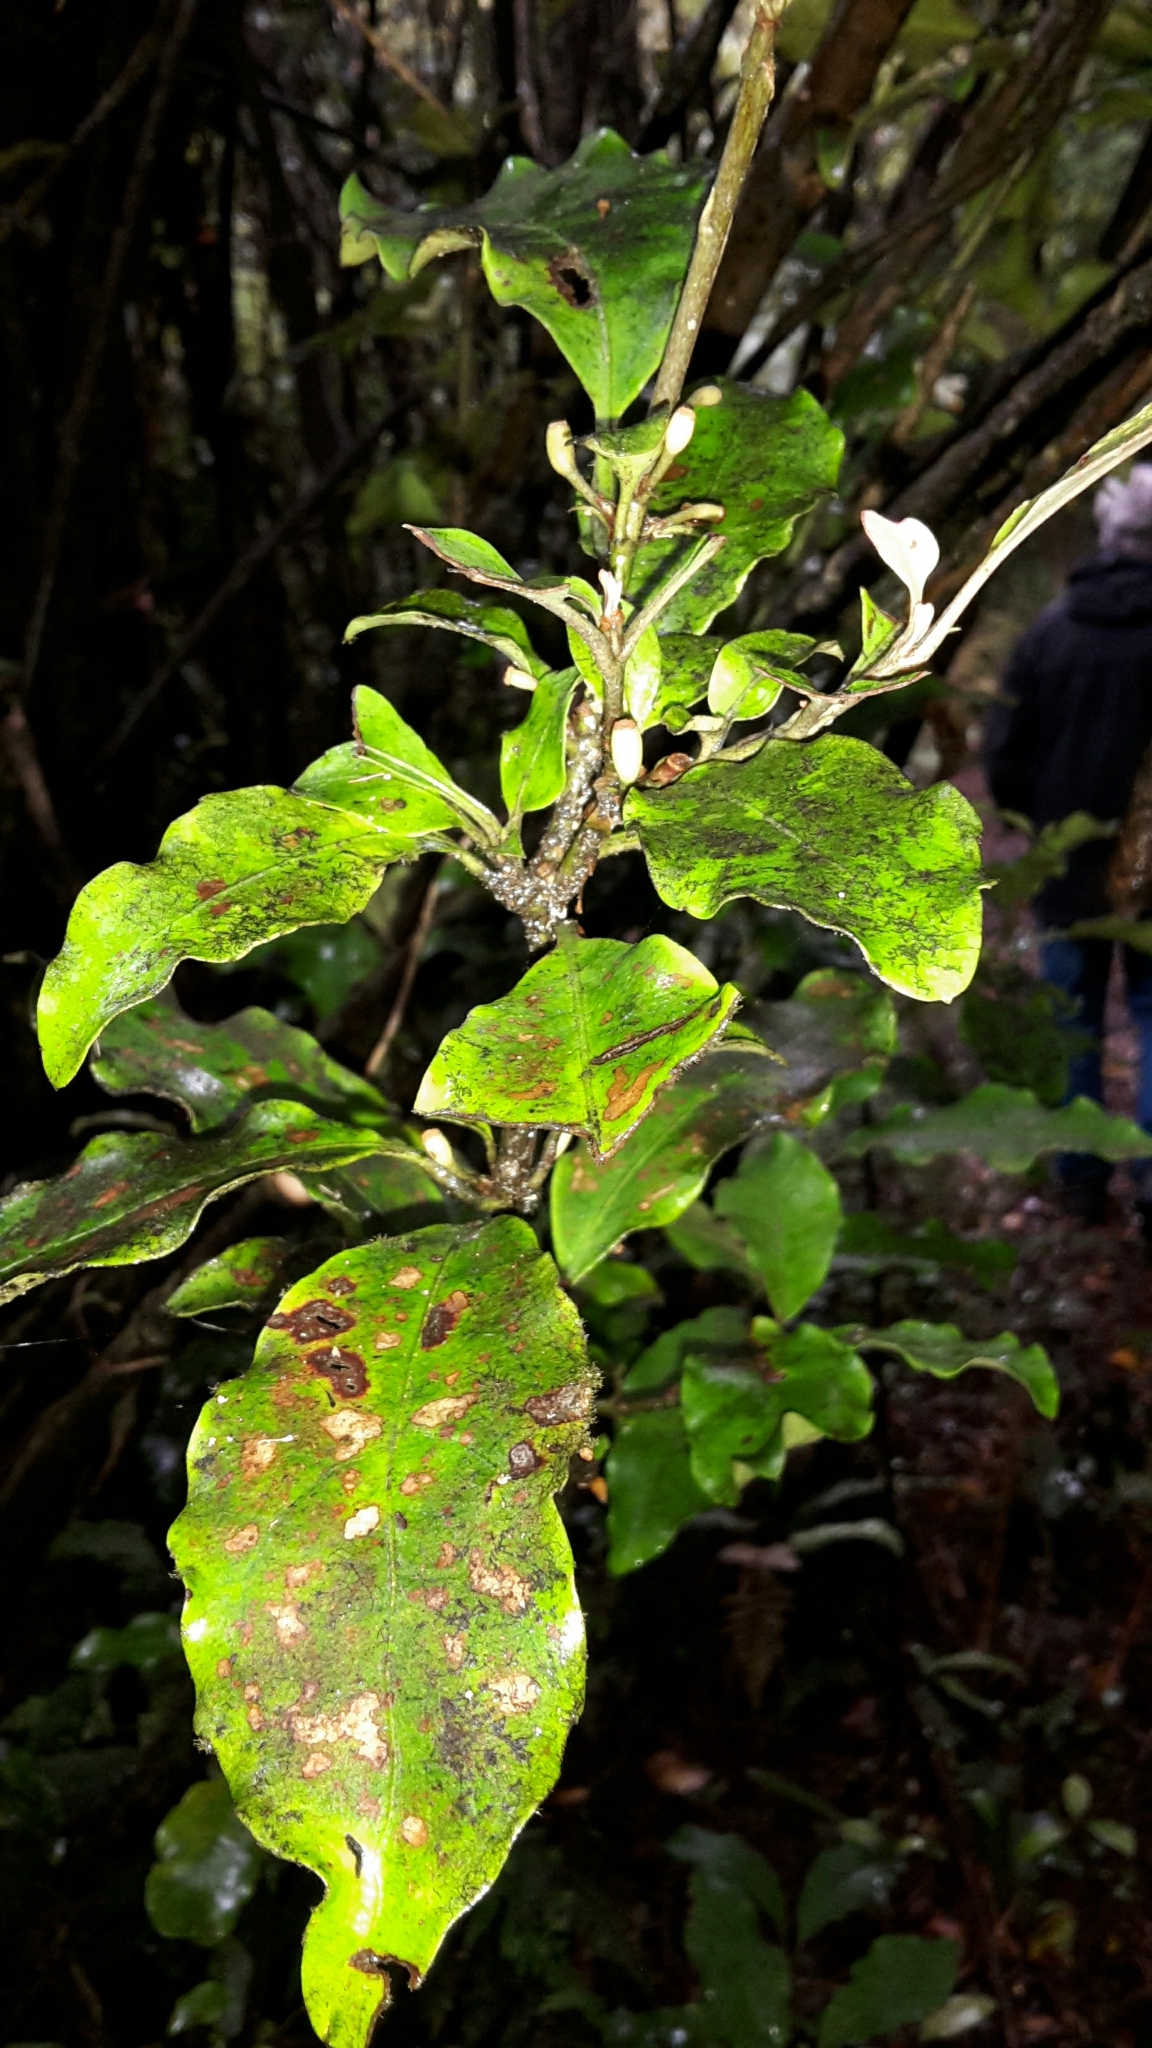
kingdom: Plantae
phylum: Tracheophyta
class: Magnoliopsida
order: Asterales
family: Alseuosmiaceae
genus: Alseuosmia
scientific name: Alseuosmia macrophylla
